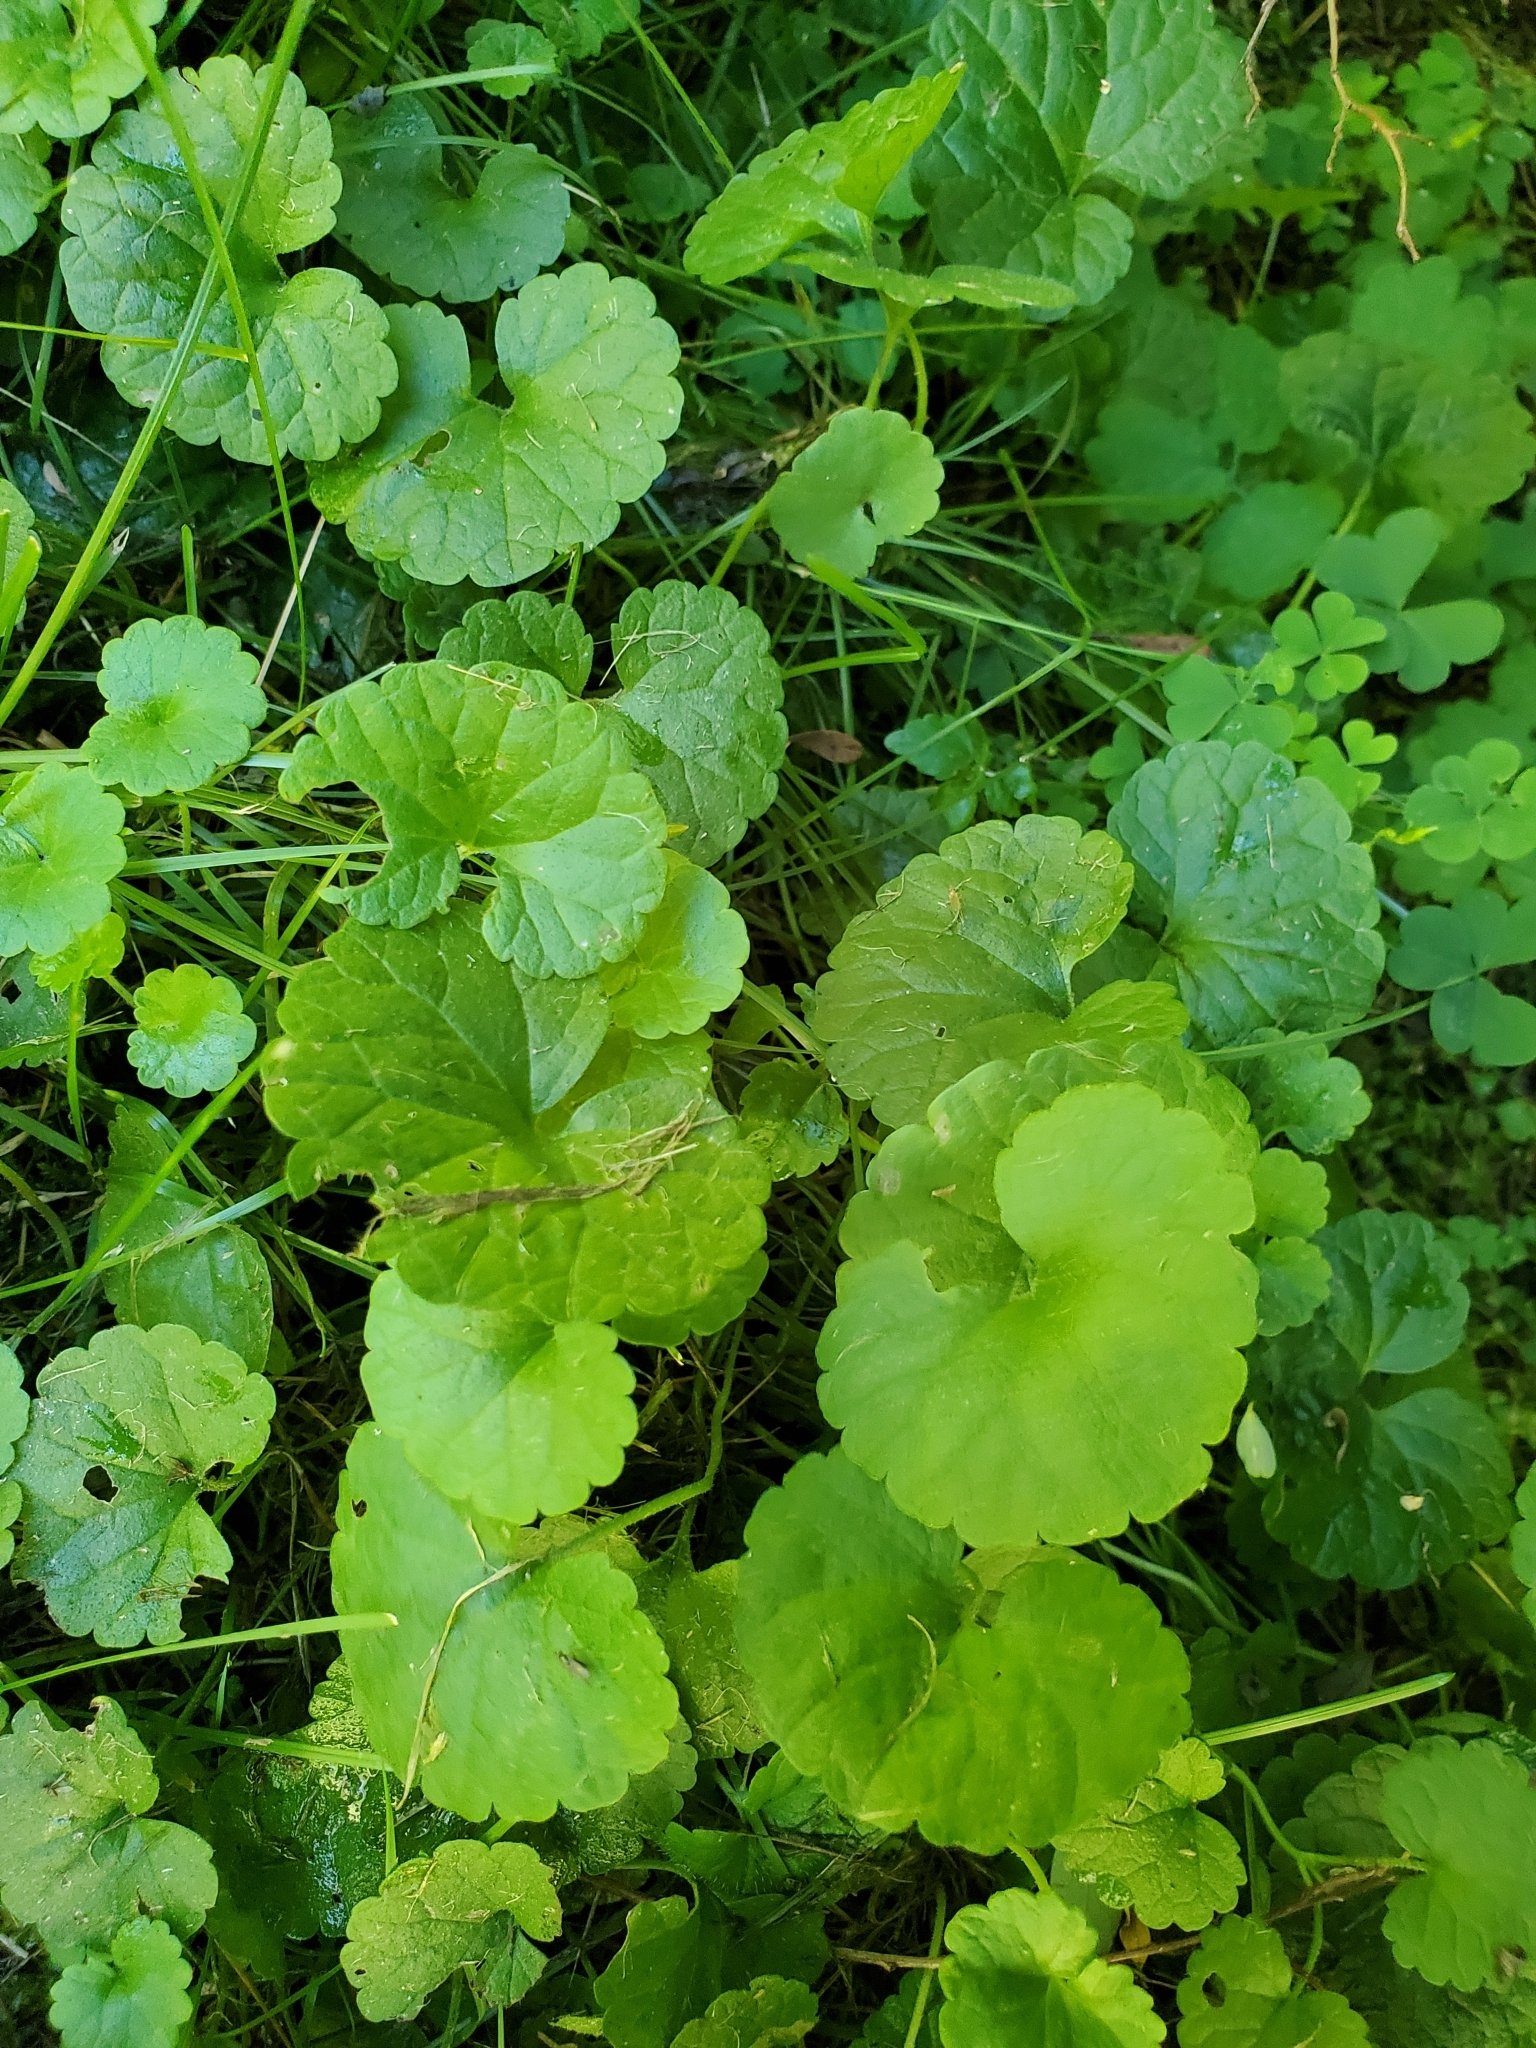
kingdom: Plantae
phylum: Tracheophyta
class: Magnoliopsida
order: Lamiales
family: Lamiaceae
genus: Glechoma
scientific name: Glechoma hederacea
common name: Ground ivy
